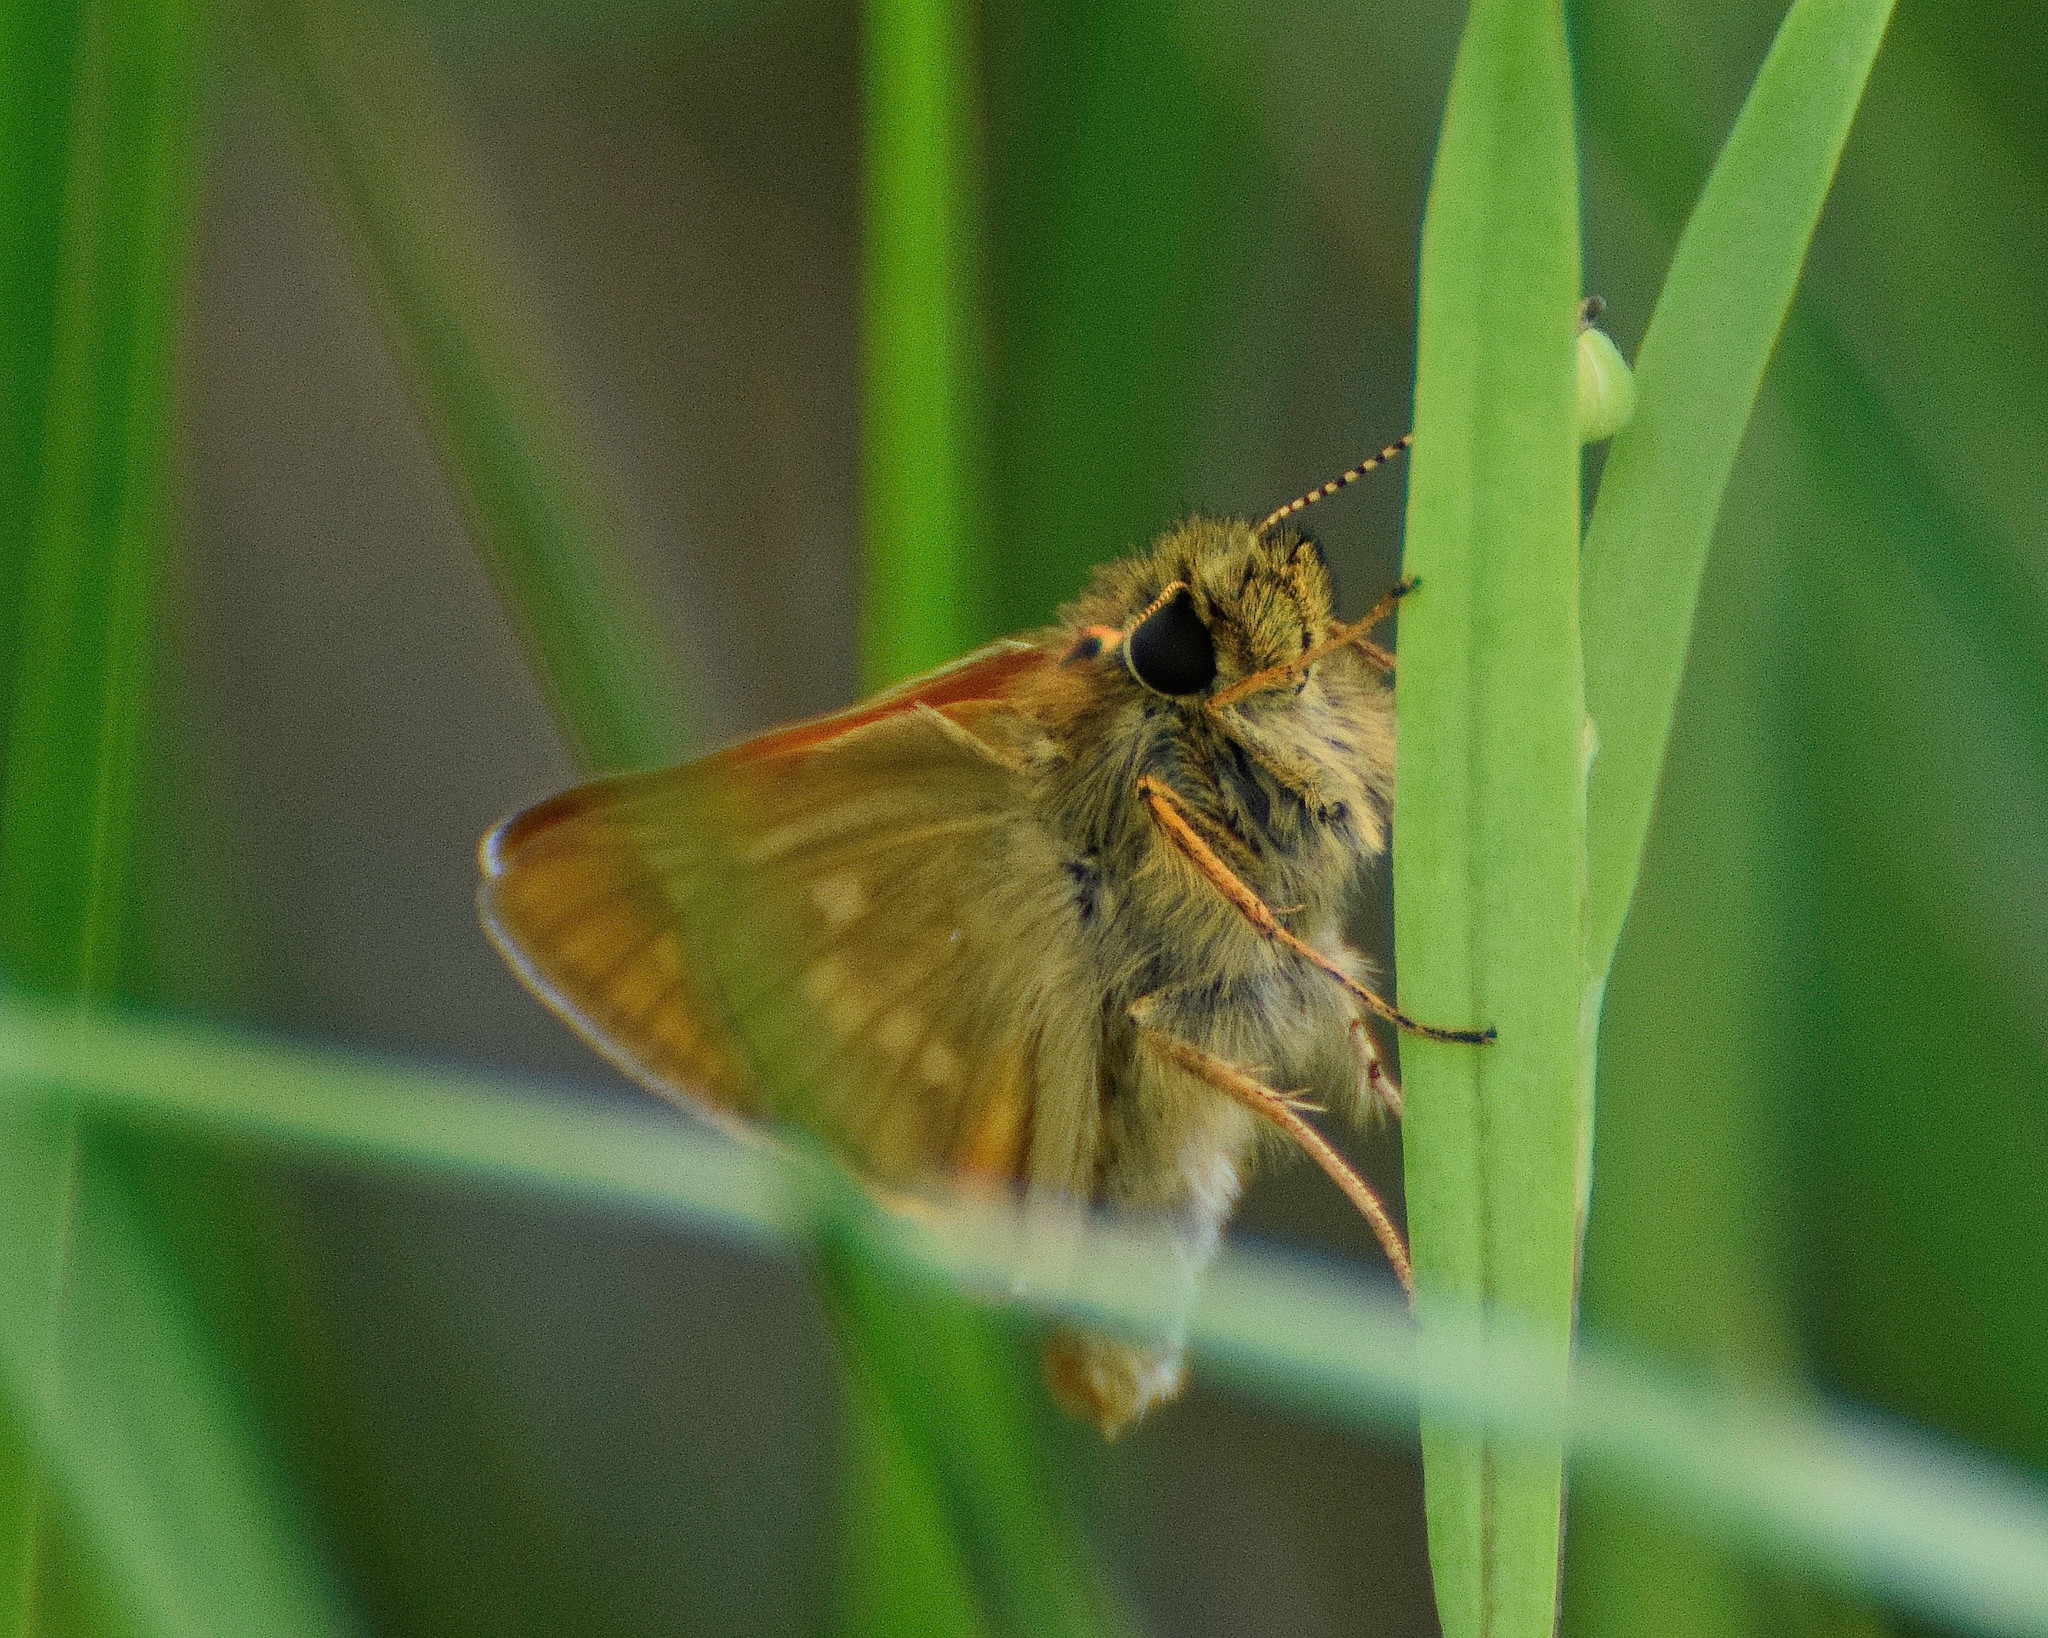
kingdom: Animalia
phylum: Arthropoda
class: Insecta
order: Lepidoptera
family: Hesperiidae
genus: Ochlodes
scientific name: Ochlodes venata
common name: Large skipper
